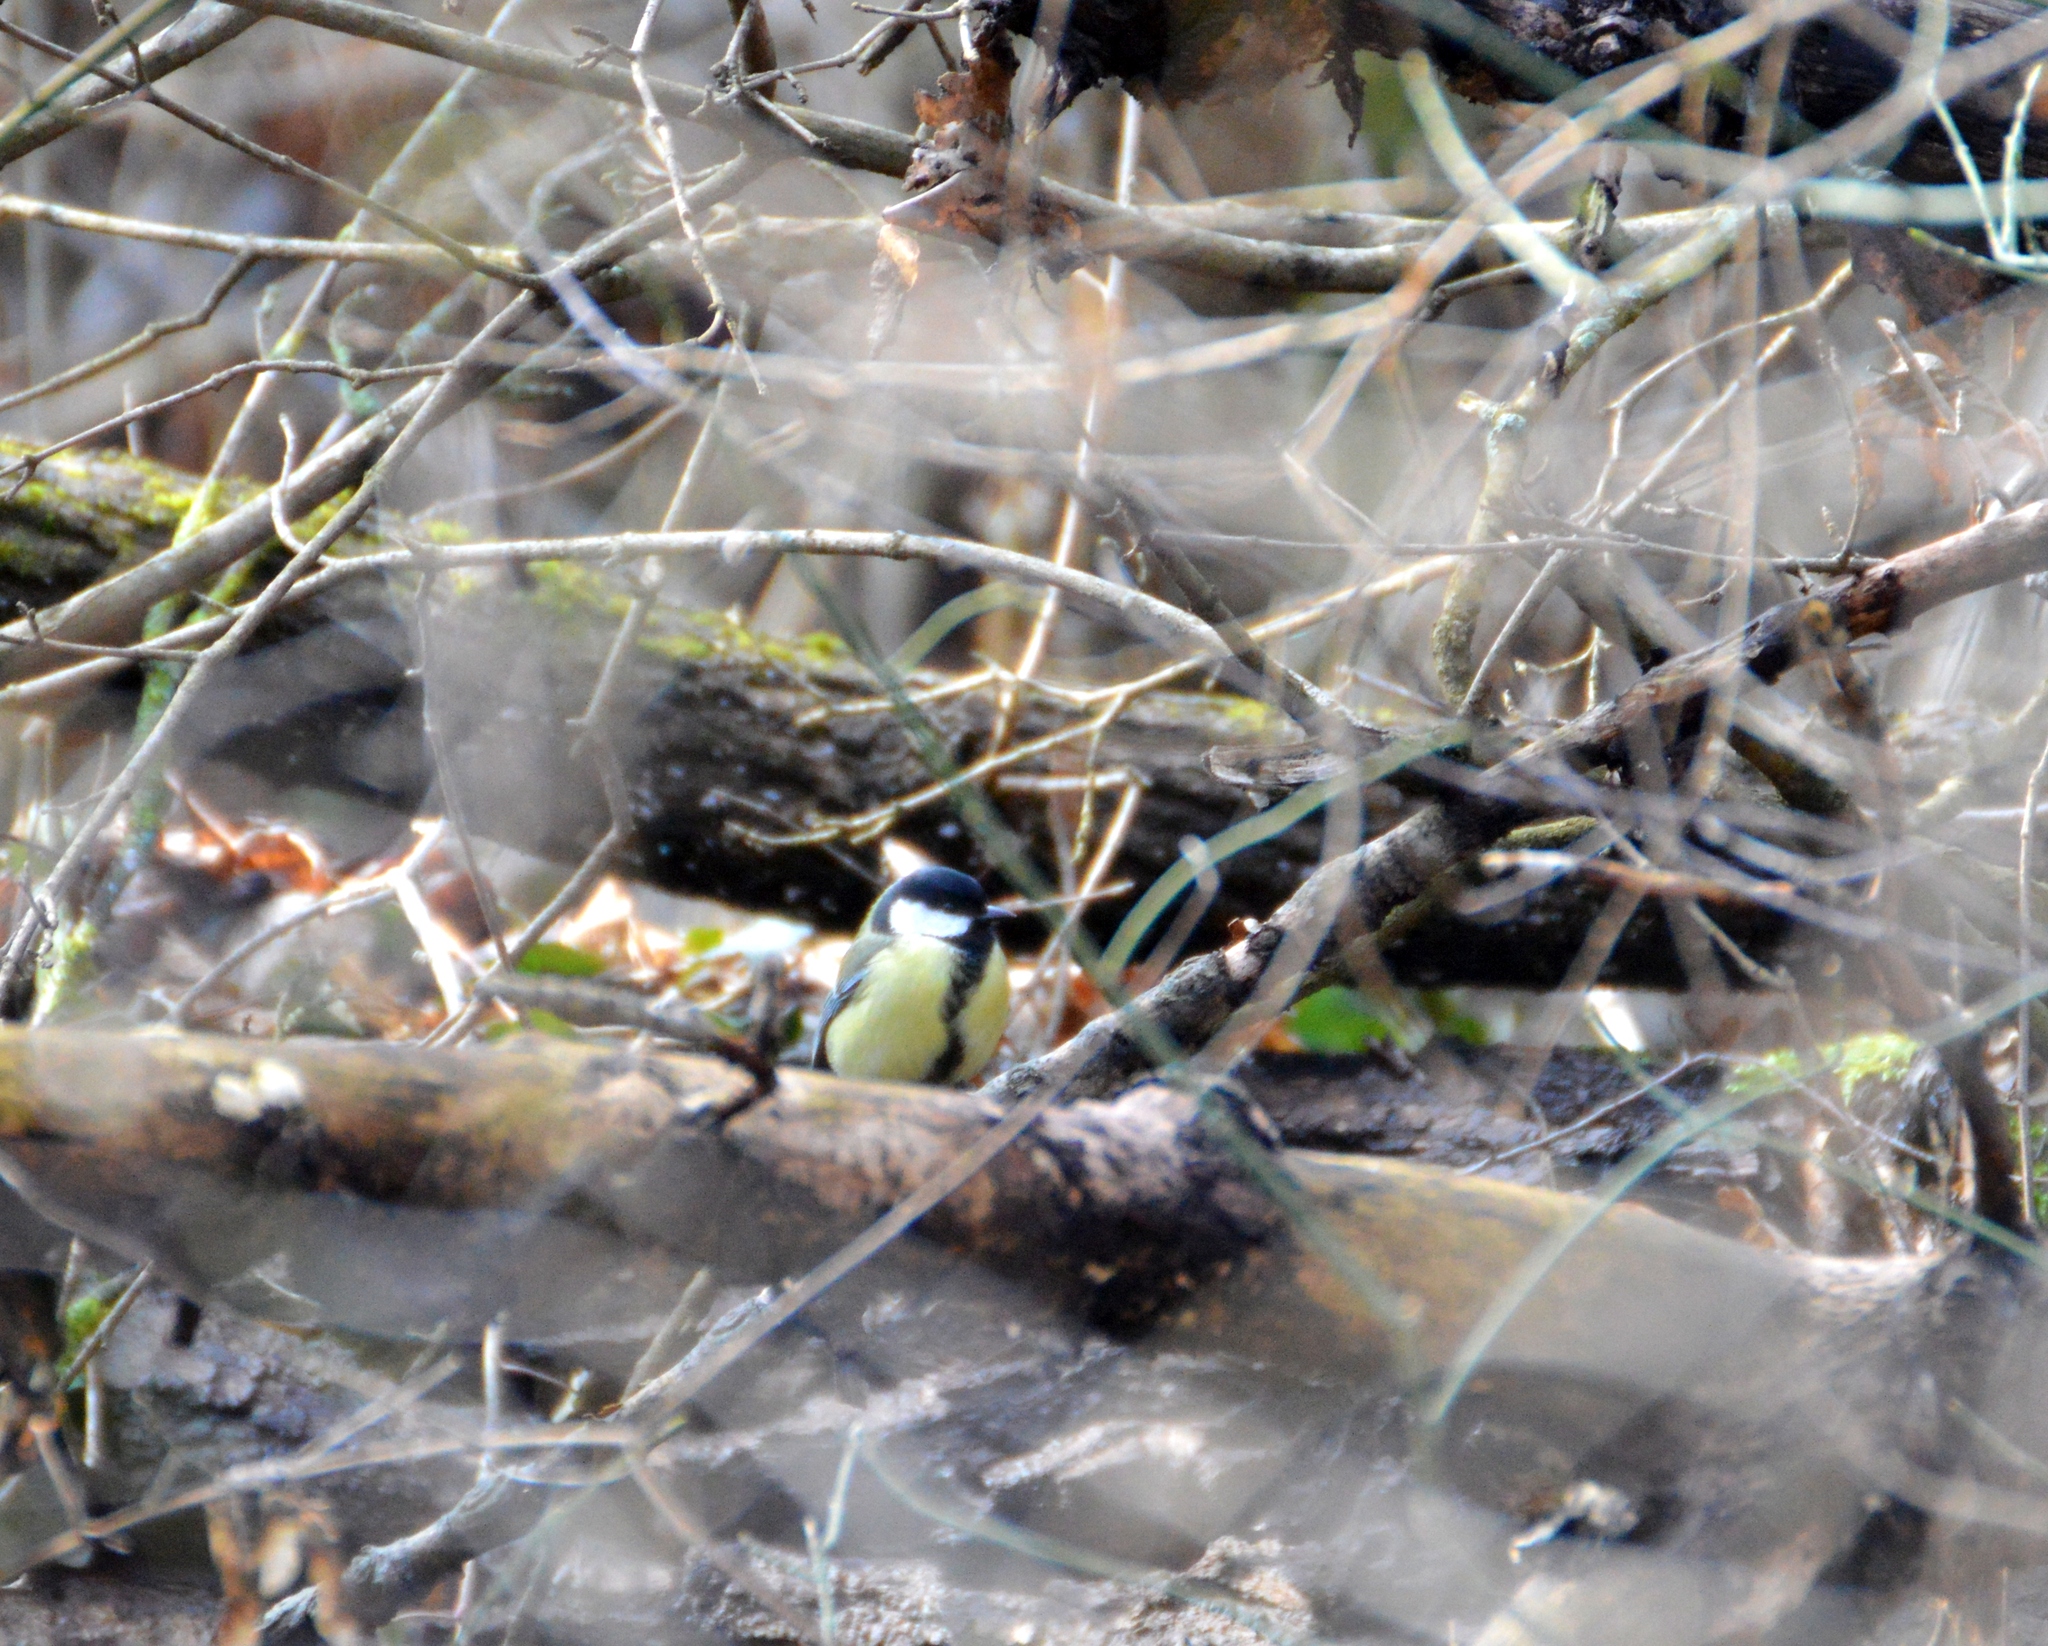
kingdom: Animalia
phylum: Chordata
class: Aves
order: Passeriformes
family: Paridae
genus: Parus
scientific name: Parus major
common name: Great tit
